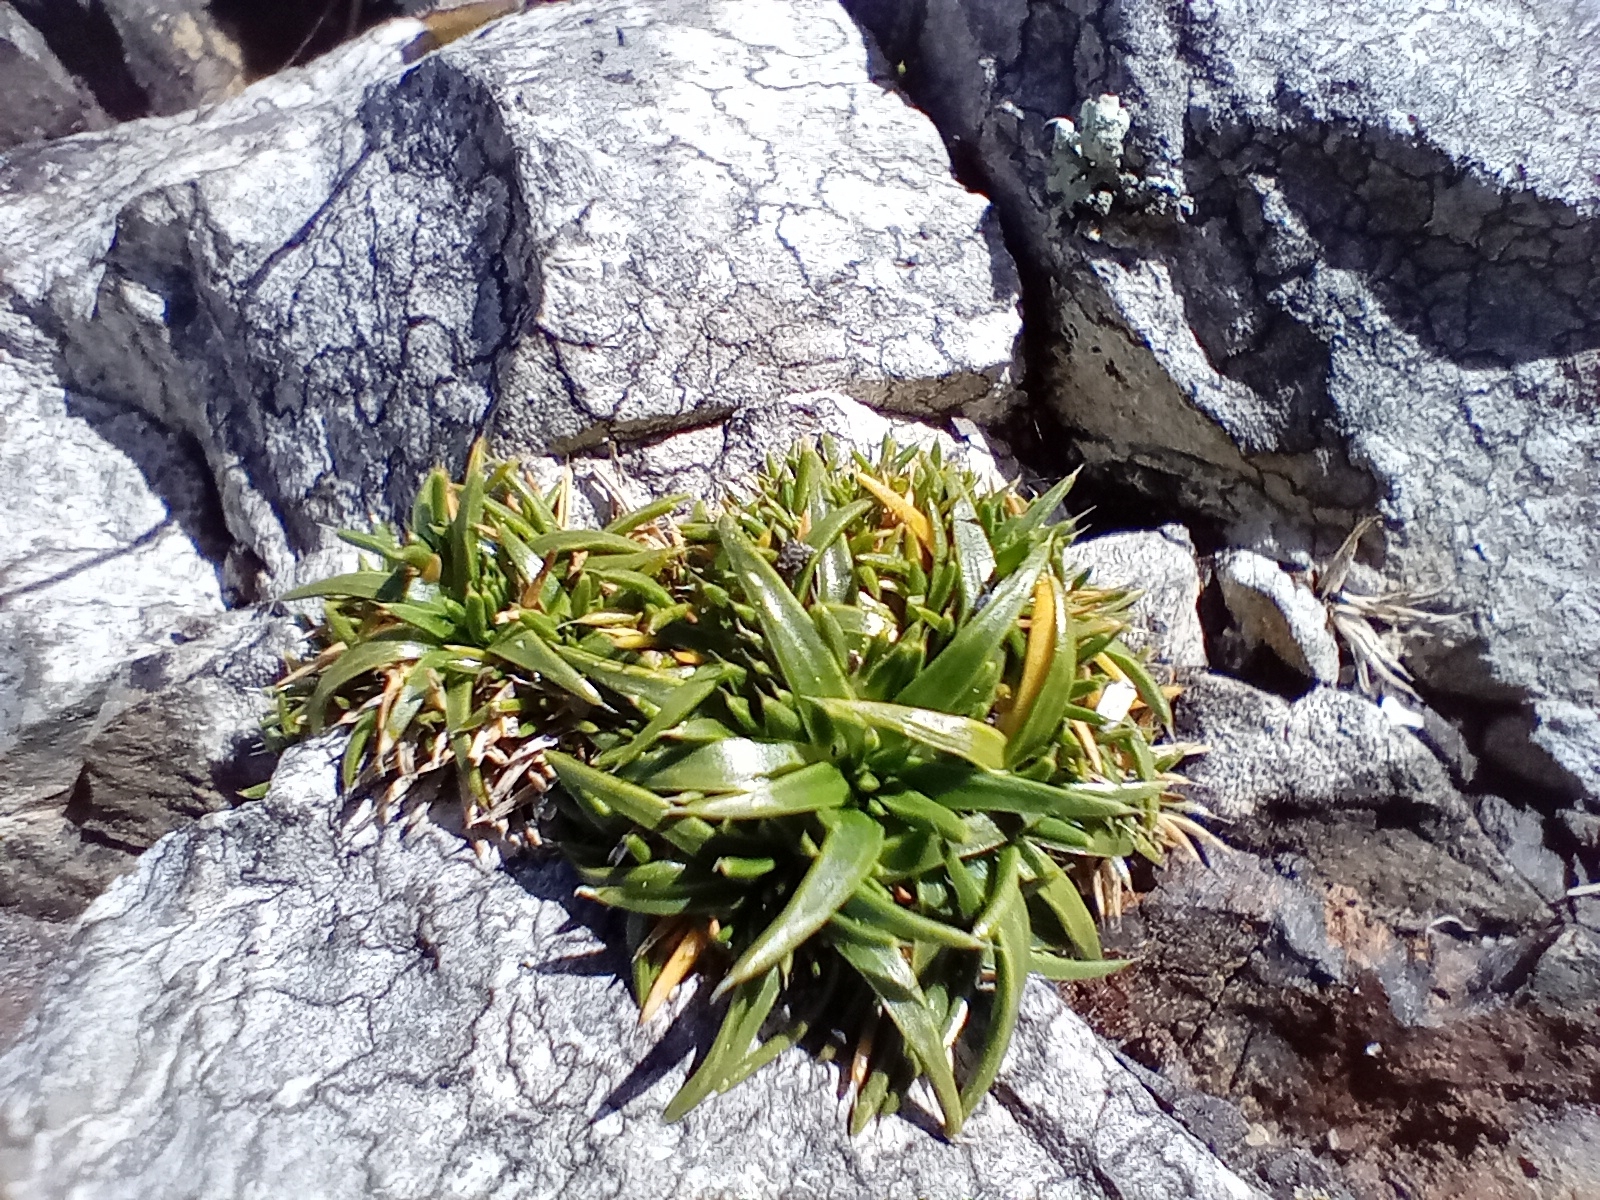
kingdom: Plantae
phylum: Tracheophyta
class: Magnoliopsida
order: Caryophyllales
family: Caryophyllaceae
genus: Colobanthus
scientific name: Colobanthus muelleri
